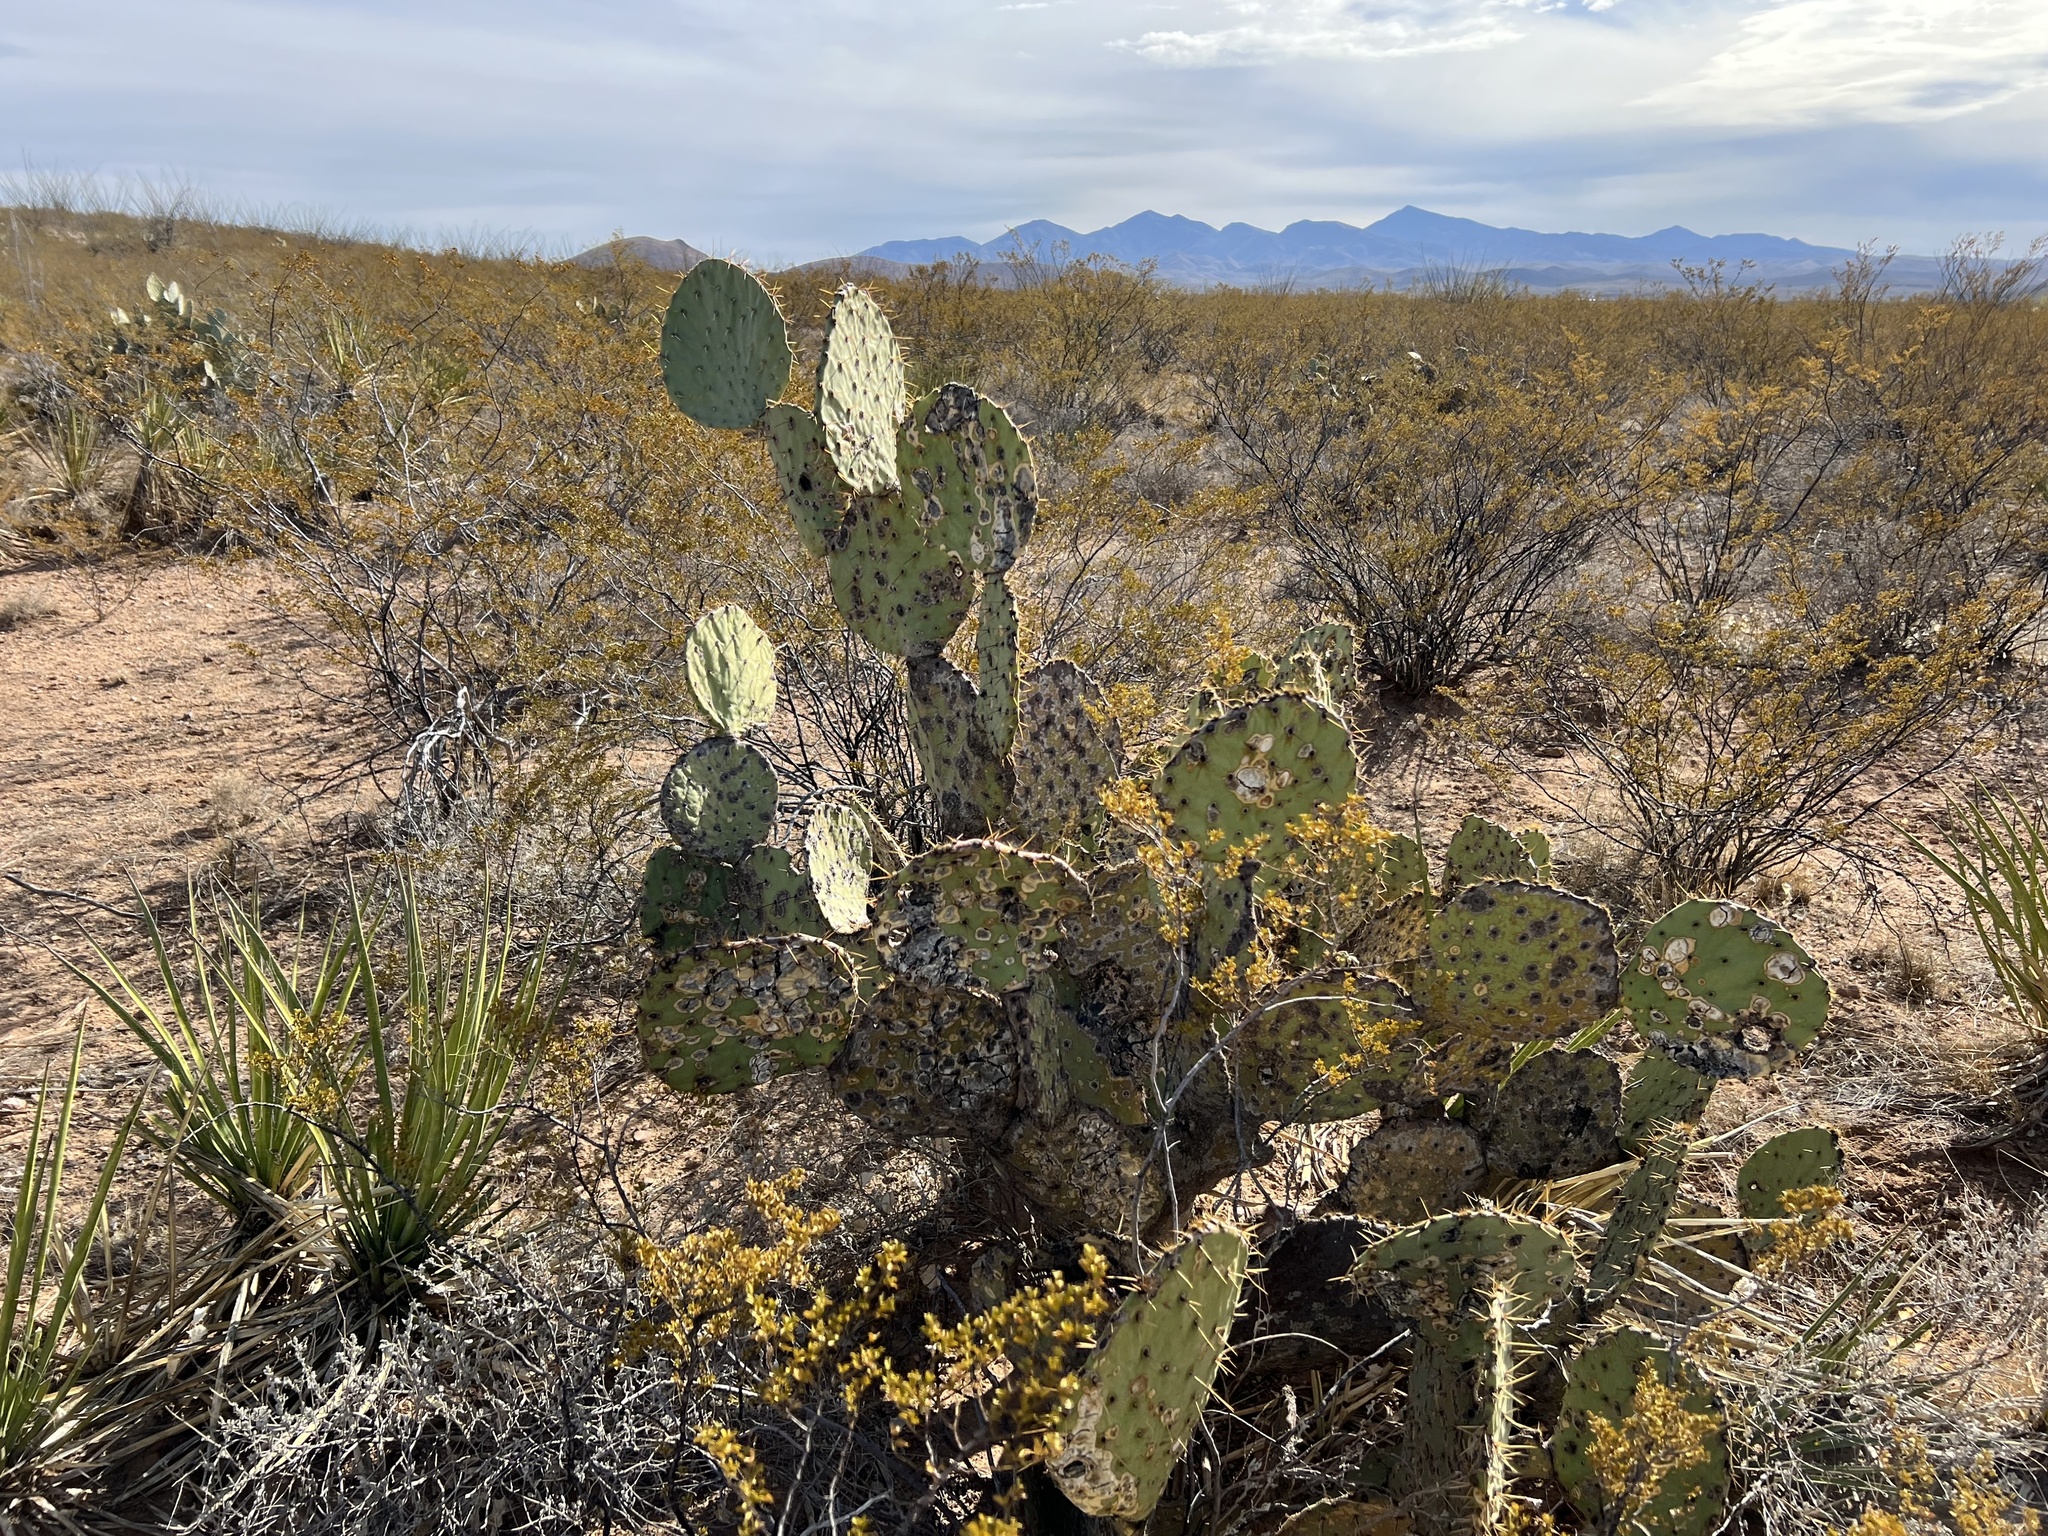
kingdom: Plantae
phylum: Tracheophyta
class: Magnoliopsida
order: Caryophyllales
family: Cactaceae
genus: Opuntia
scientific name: Opuntia engelmannii
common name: Cactus-apple
